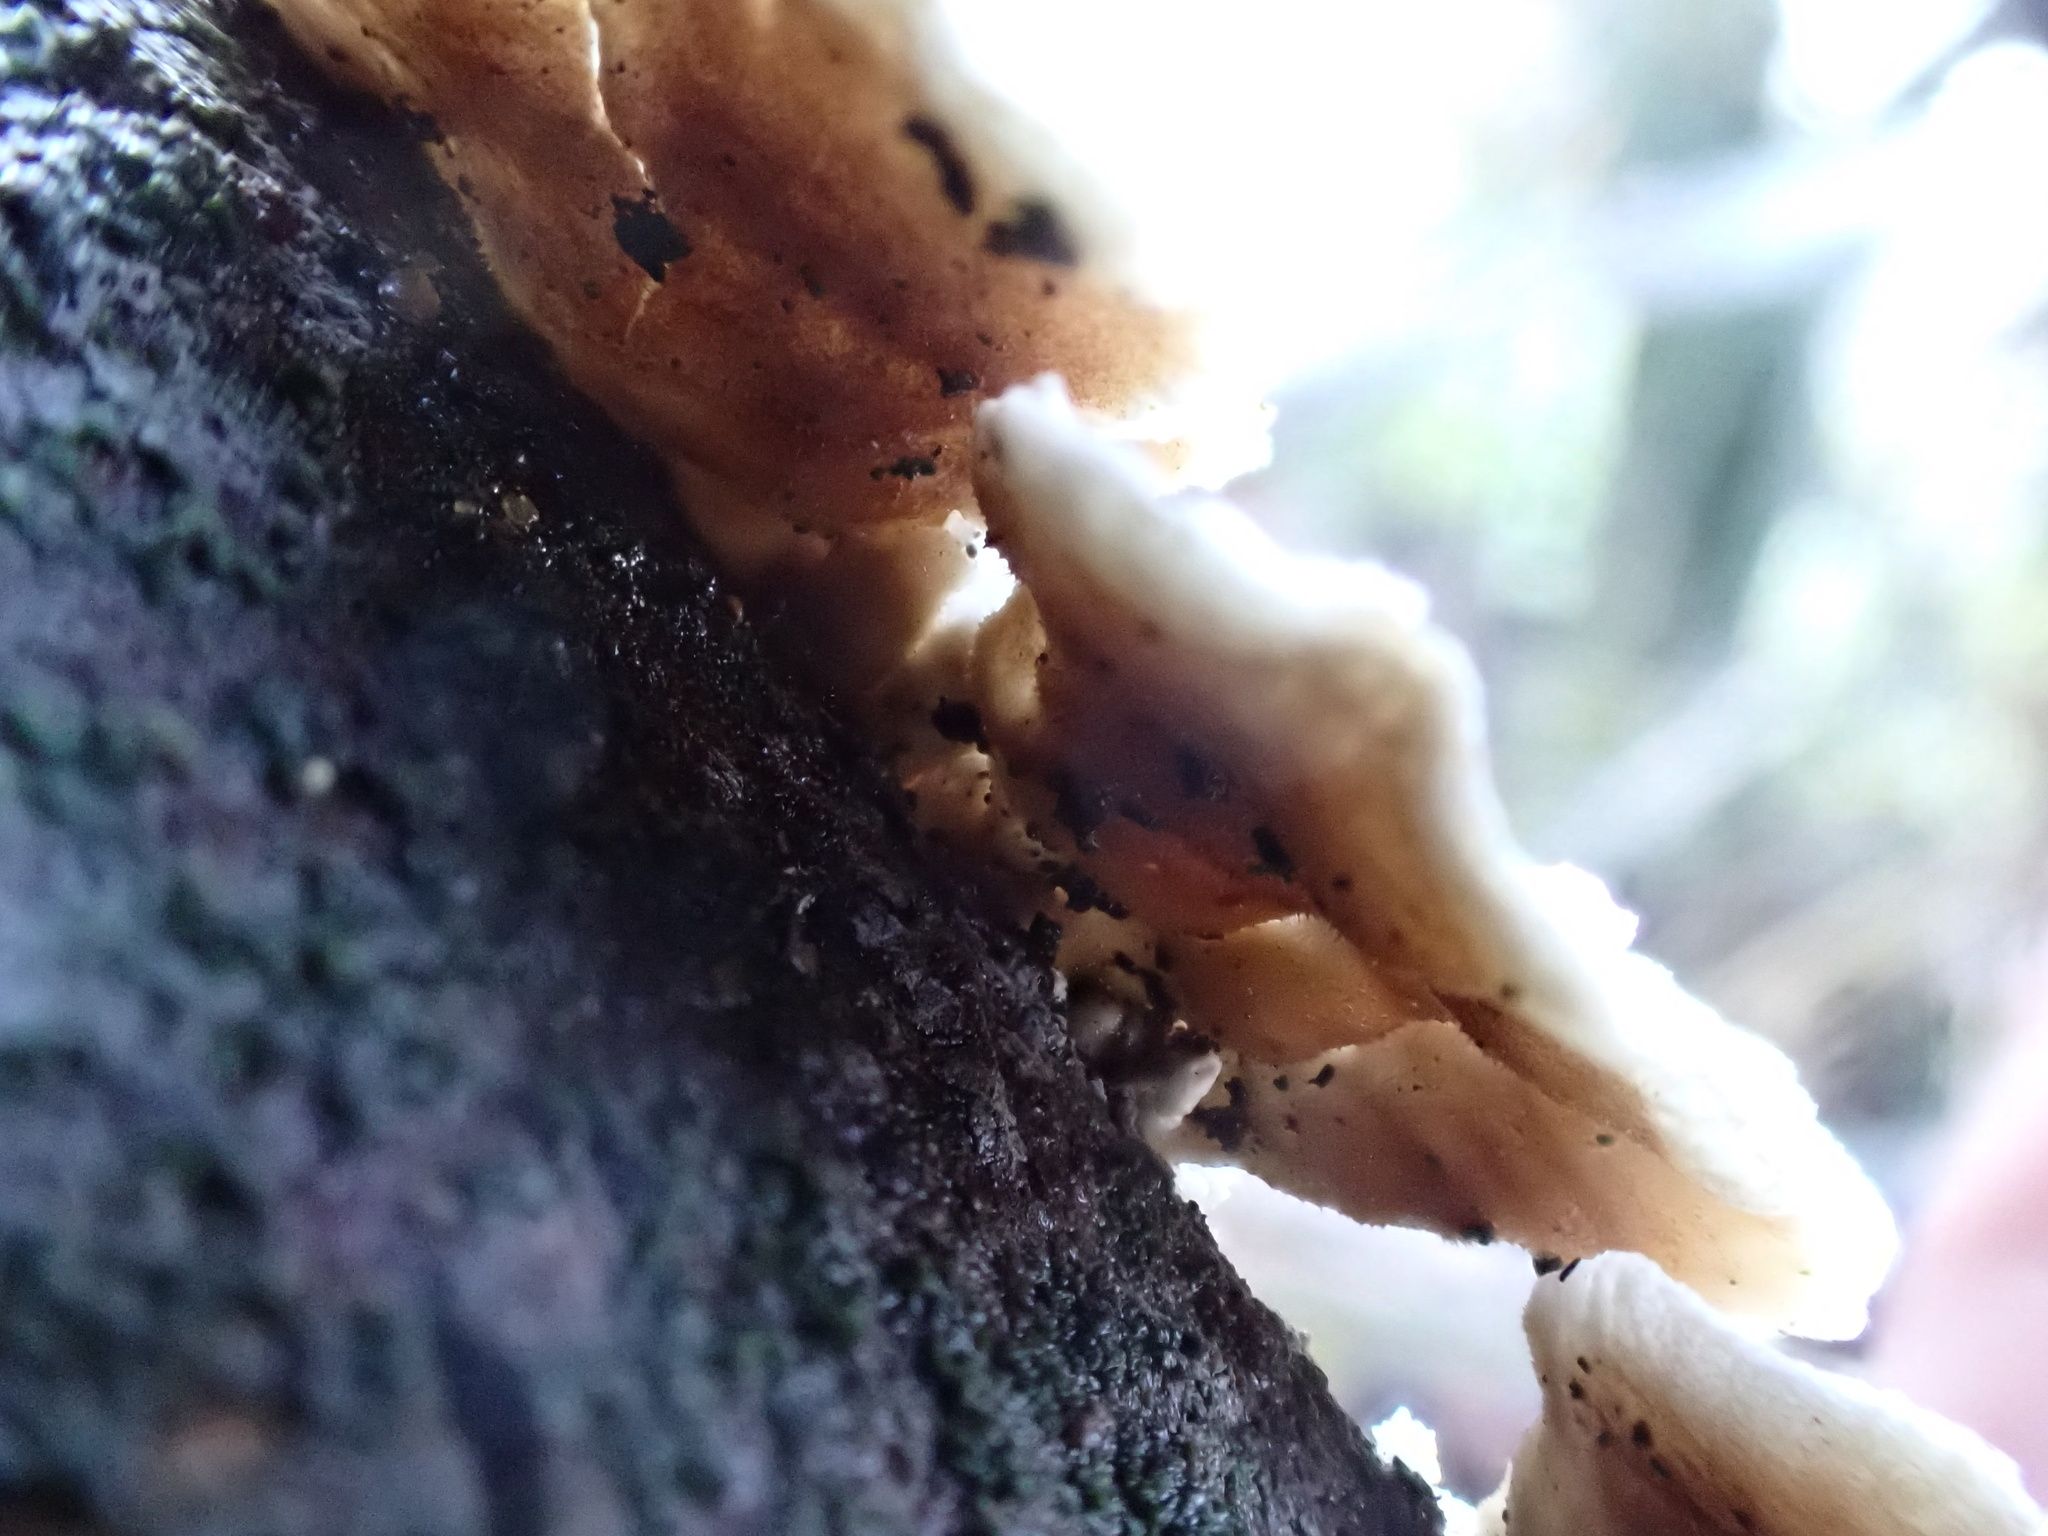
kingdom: Fungi
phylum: Basidiomycota
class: Agaricomycetes
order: Amylocorticiales
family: Amylocorticiaceae
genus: Plicaturopsis
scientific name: Plicaturopsis crispa
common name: Crimped gill
